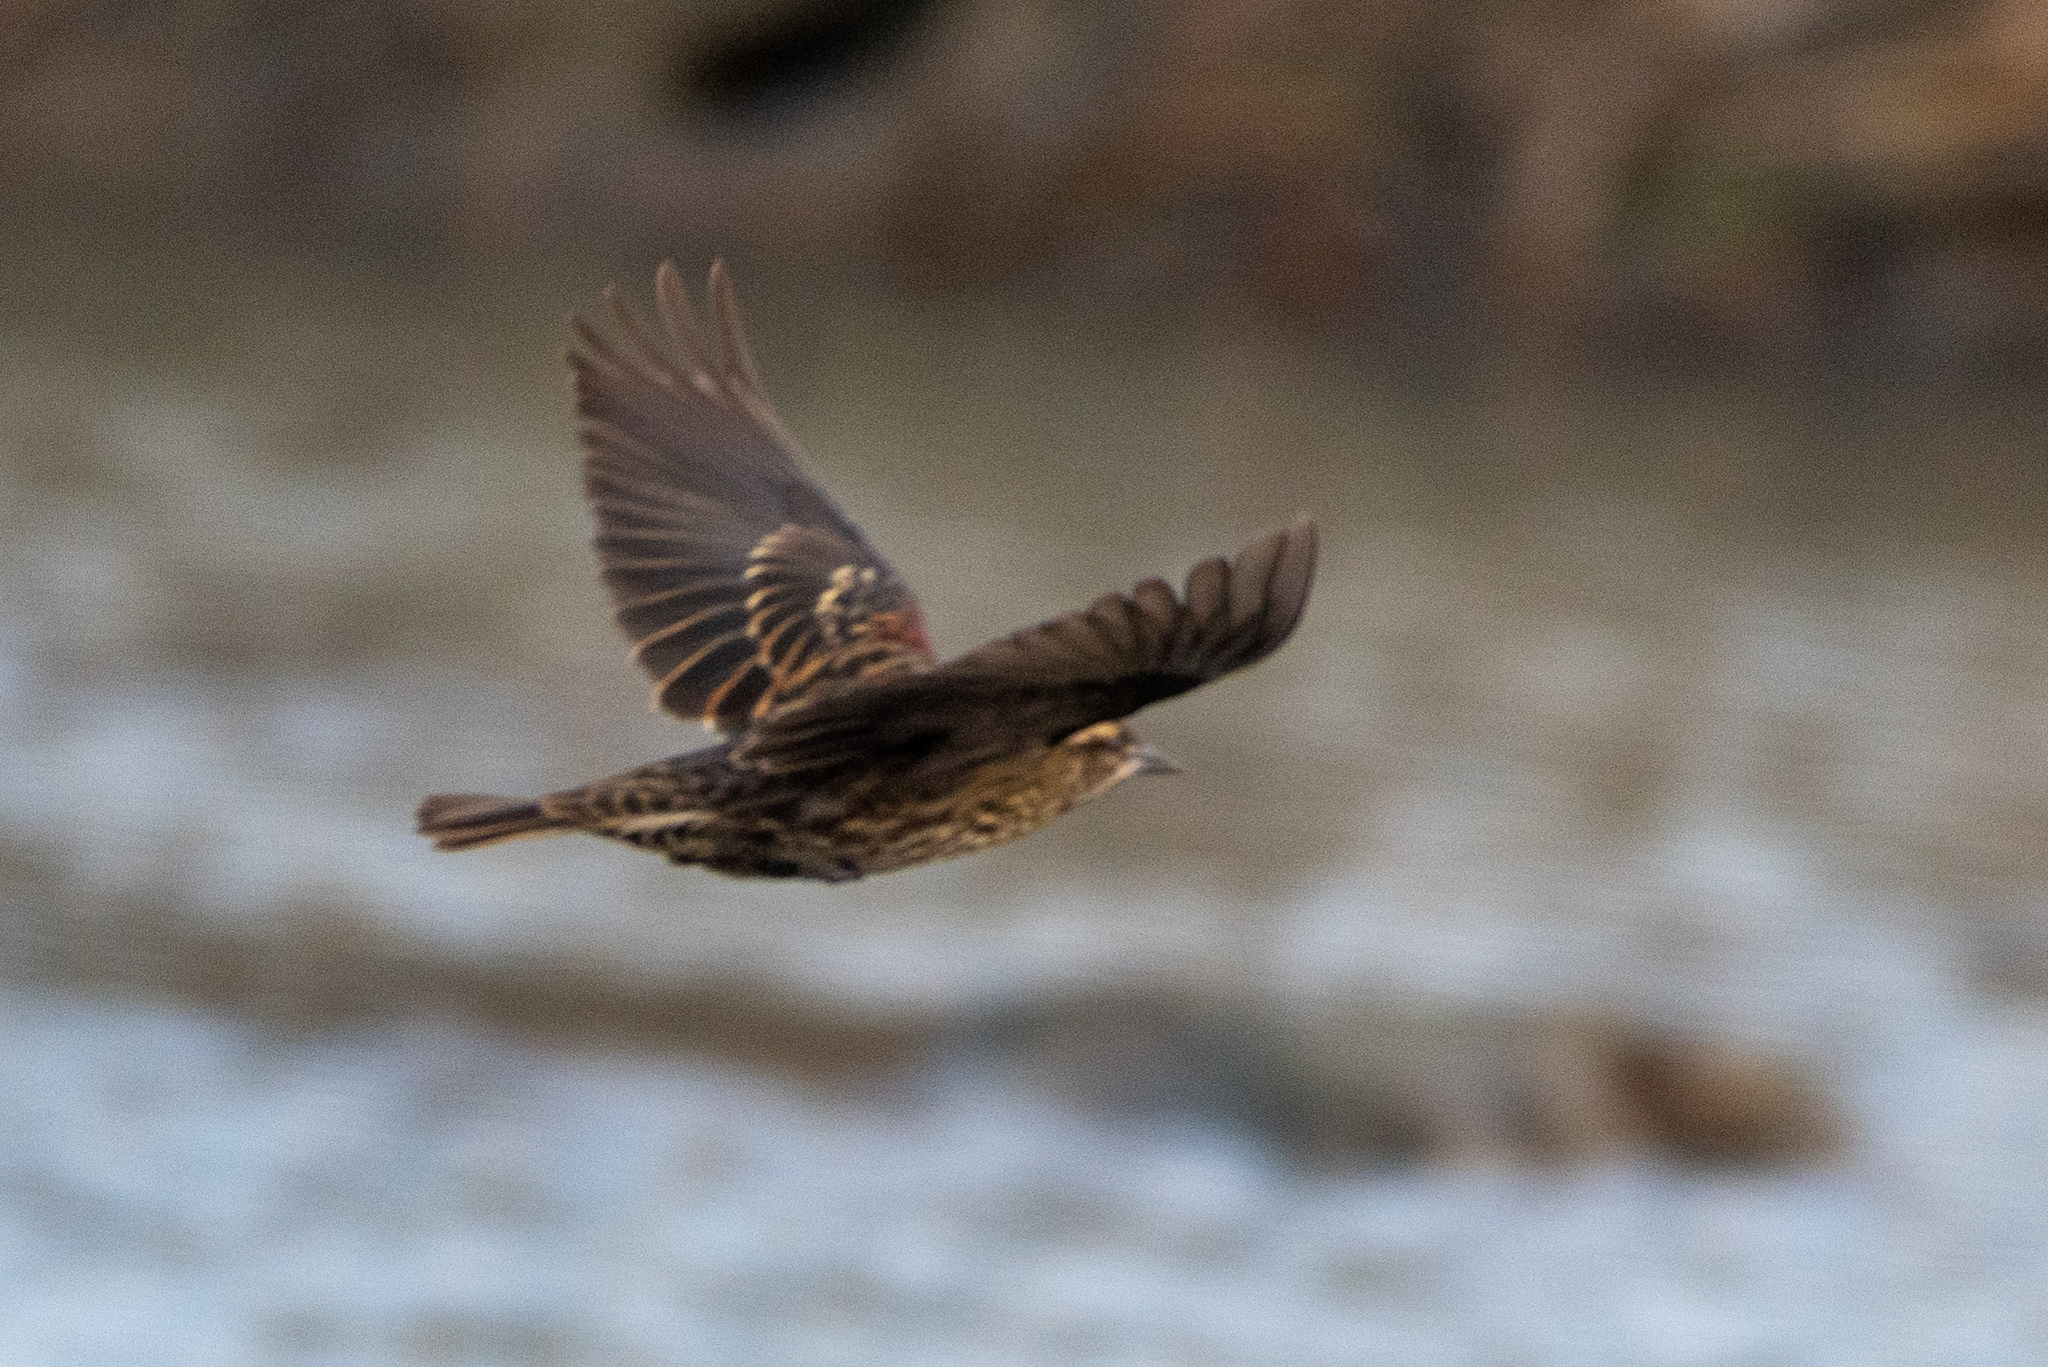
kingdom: Animalia
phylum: Chordata
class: Aves
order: Passeriformes
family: Icteridae
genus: Agelaius
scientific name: Agelaius phoeniceus
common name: Red-winged blackbird
